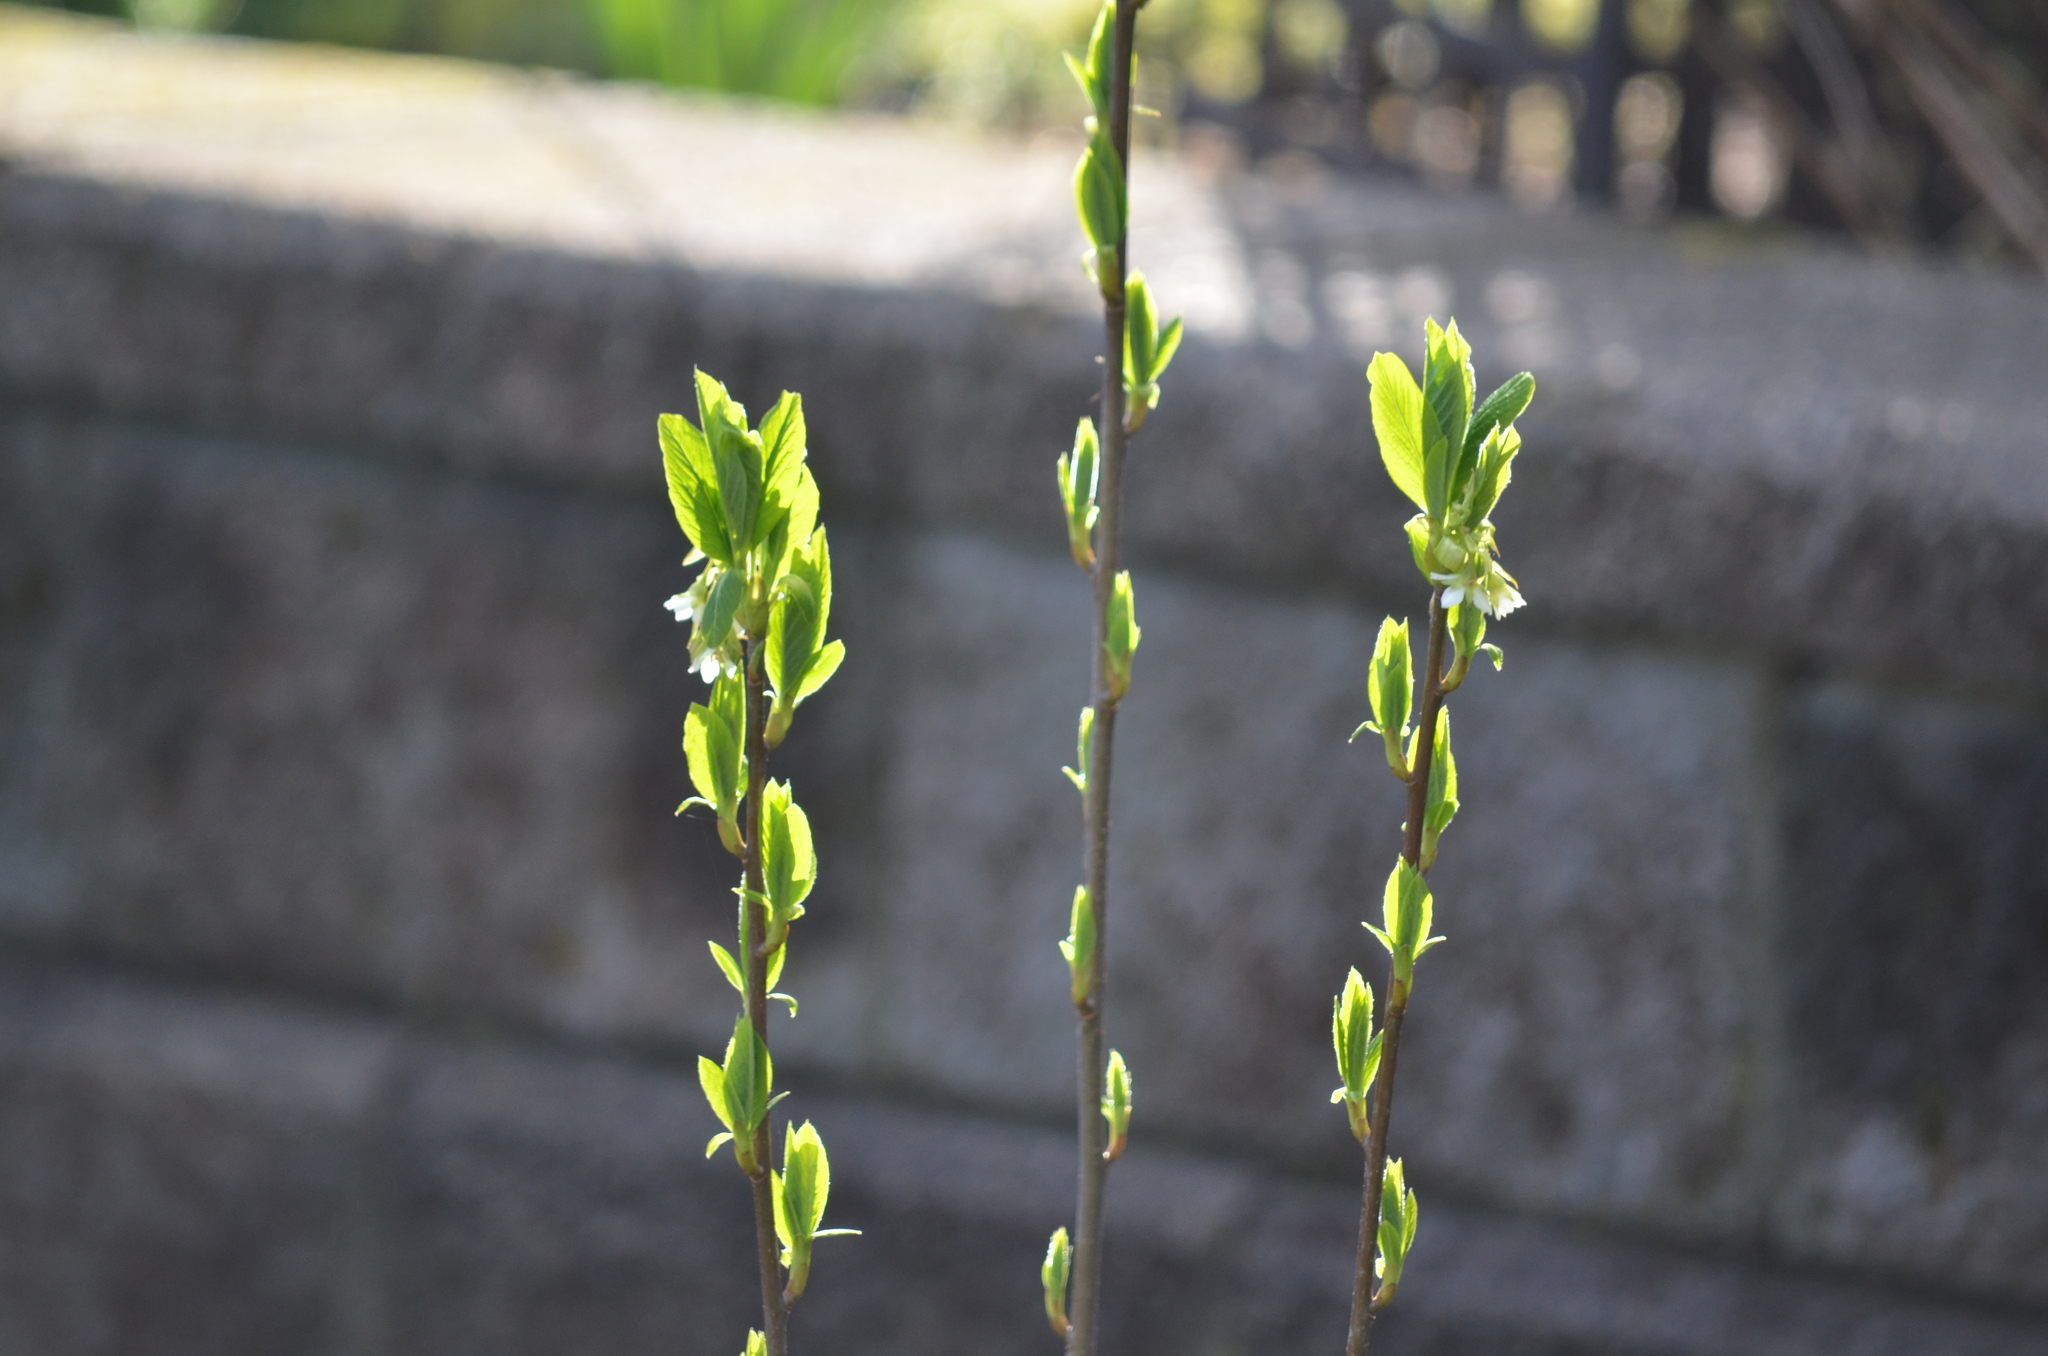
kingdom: Plantae
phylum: Tracheophyta
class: Magnoliopsida
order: Rosales
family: Rosaceae
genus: Oemleria
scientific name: Oemleria cerasiformis
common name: Osoberry
